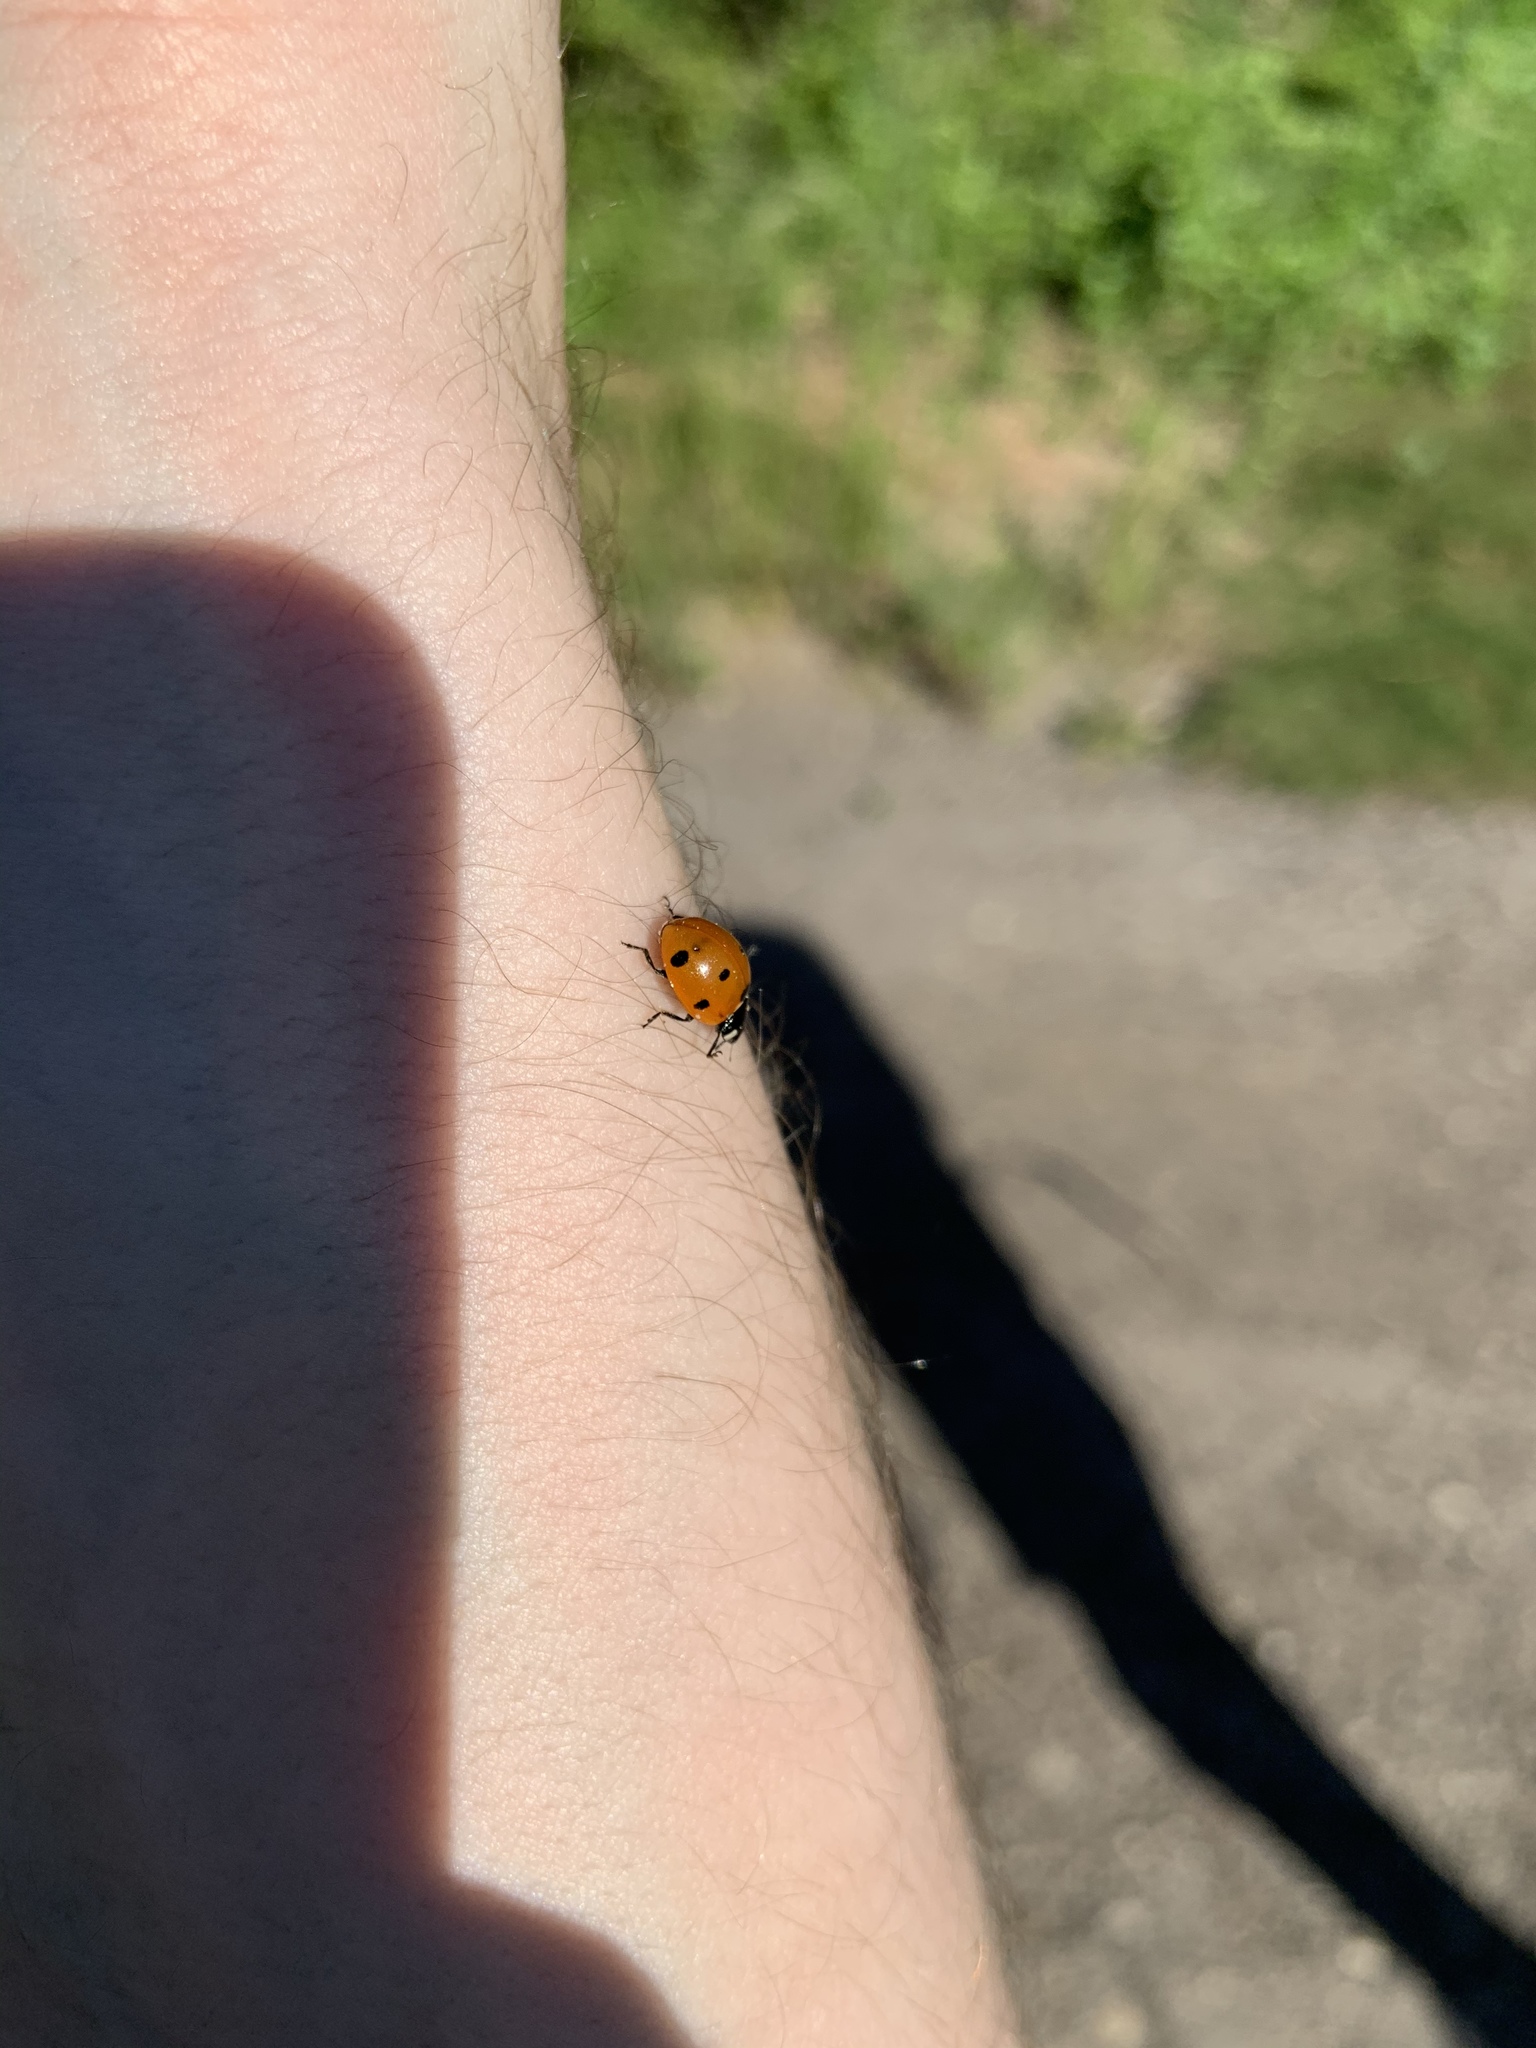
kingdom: Animalia
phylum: Arthropoda
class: Insecta
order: Coleoptera
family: Coccinellidae
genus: Coccinella
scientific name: Coccinella septempunctata
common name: Sevenspotted lady beetle
